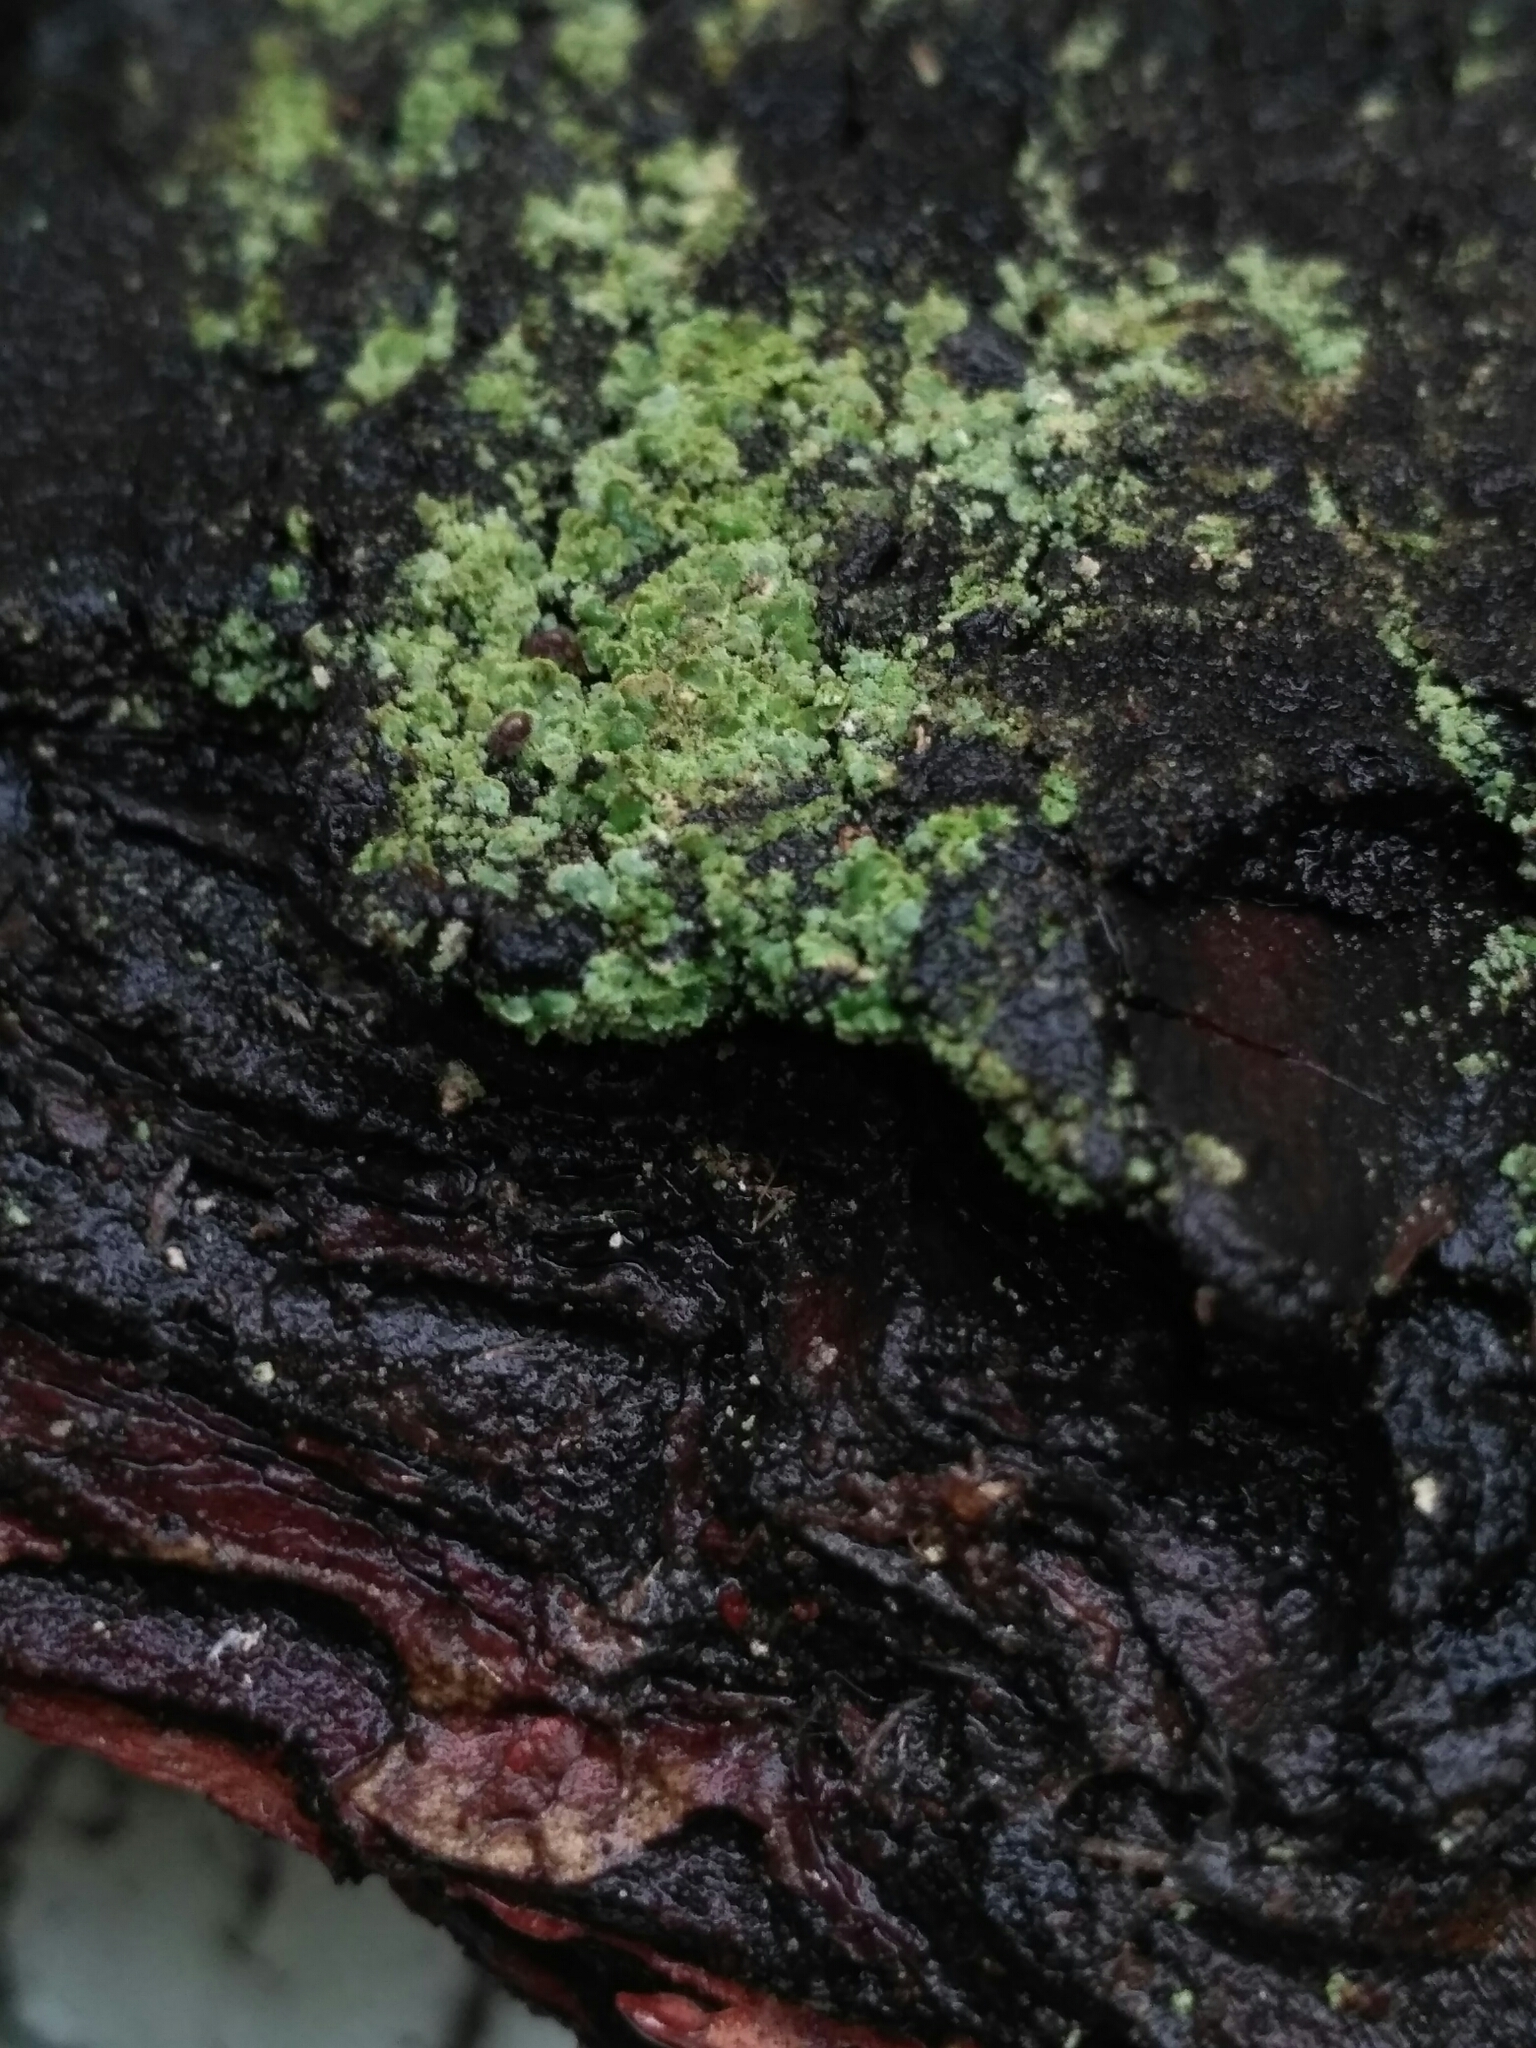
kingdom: Fungi
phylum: Ascomycota
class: Lecanoromycetes
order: Umbilicariales
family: Ophioparmaceae
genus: Hypocenomyce
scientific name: Hypocenomyce scalaris
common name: Common clam lichen
